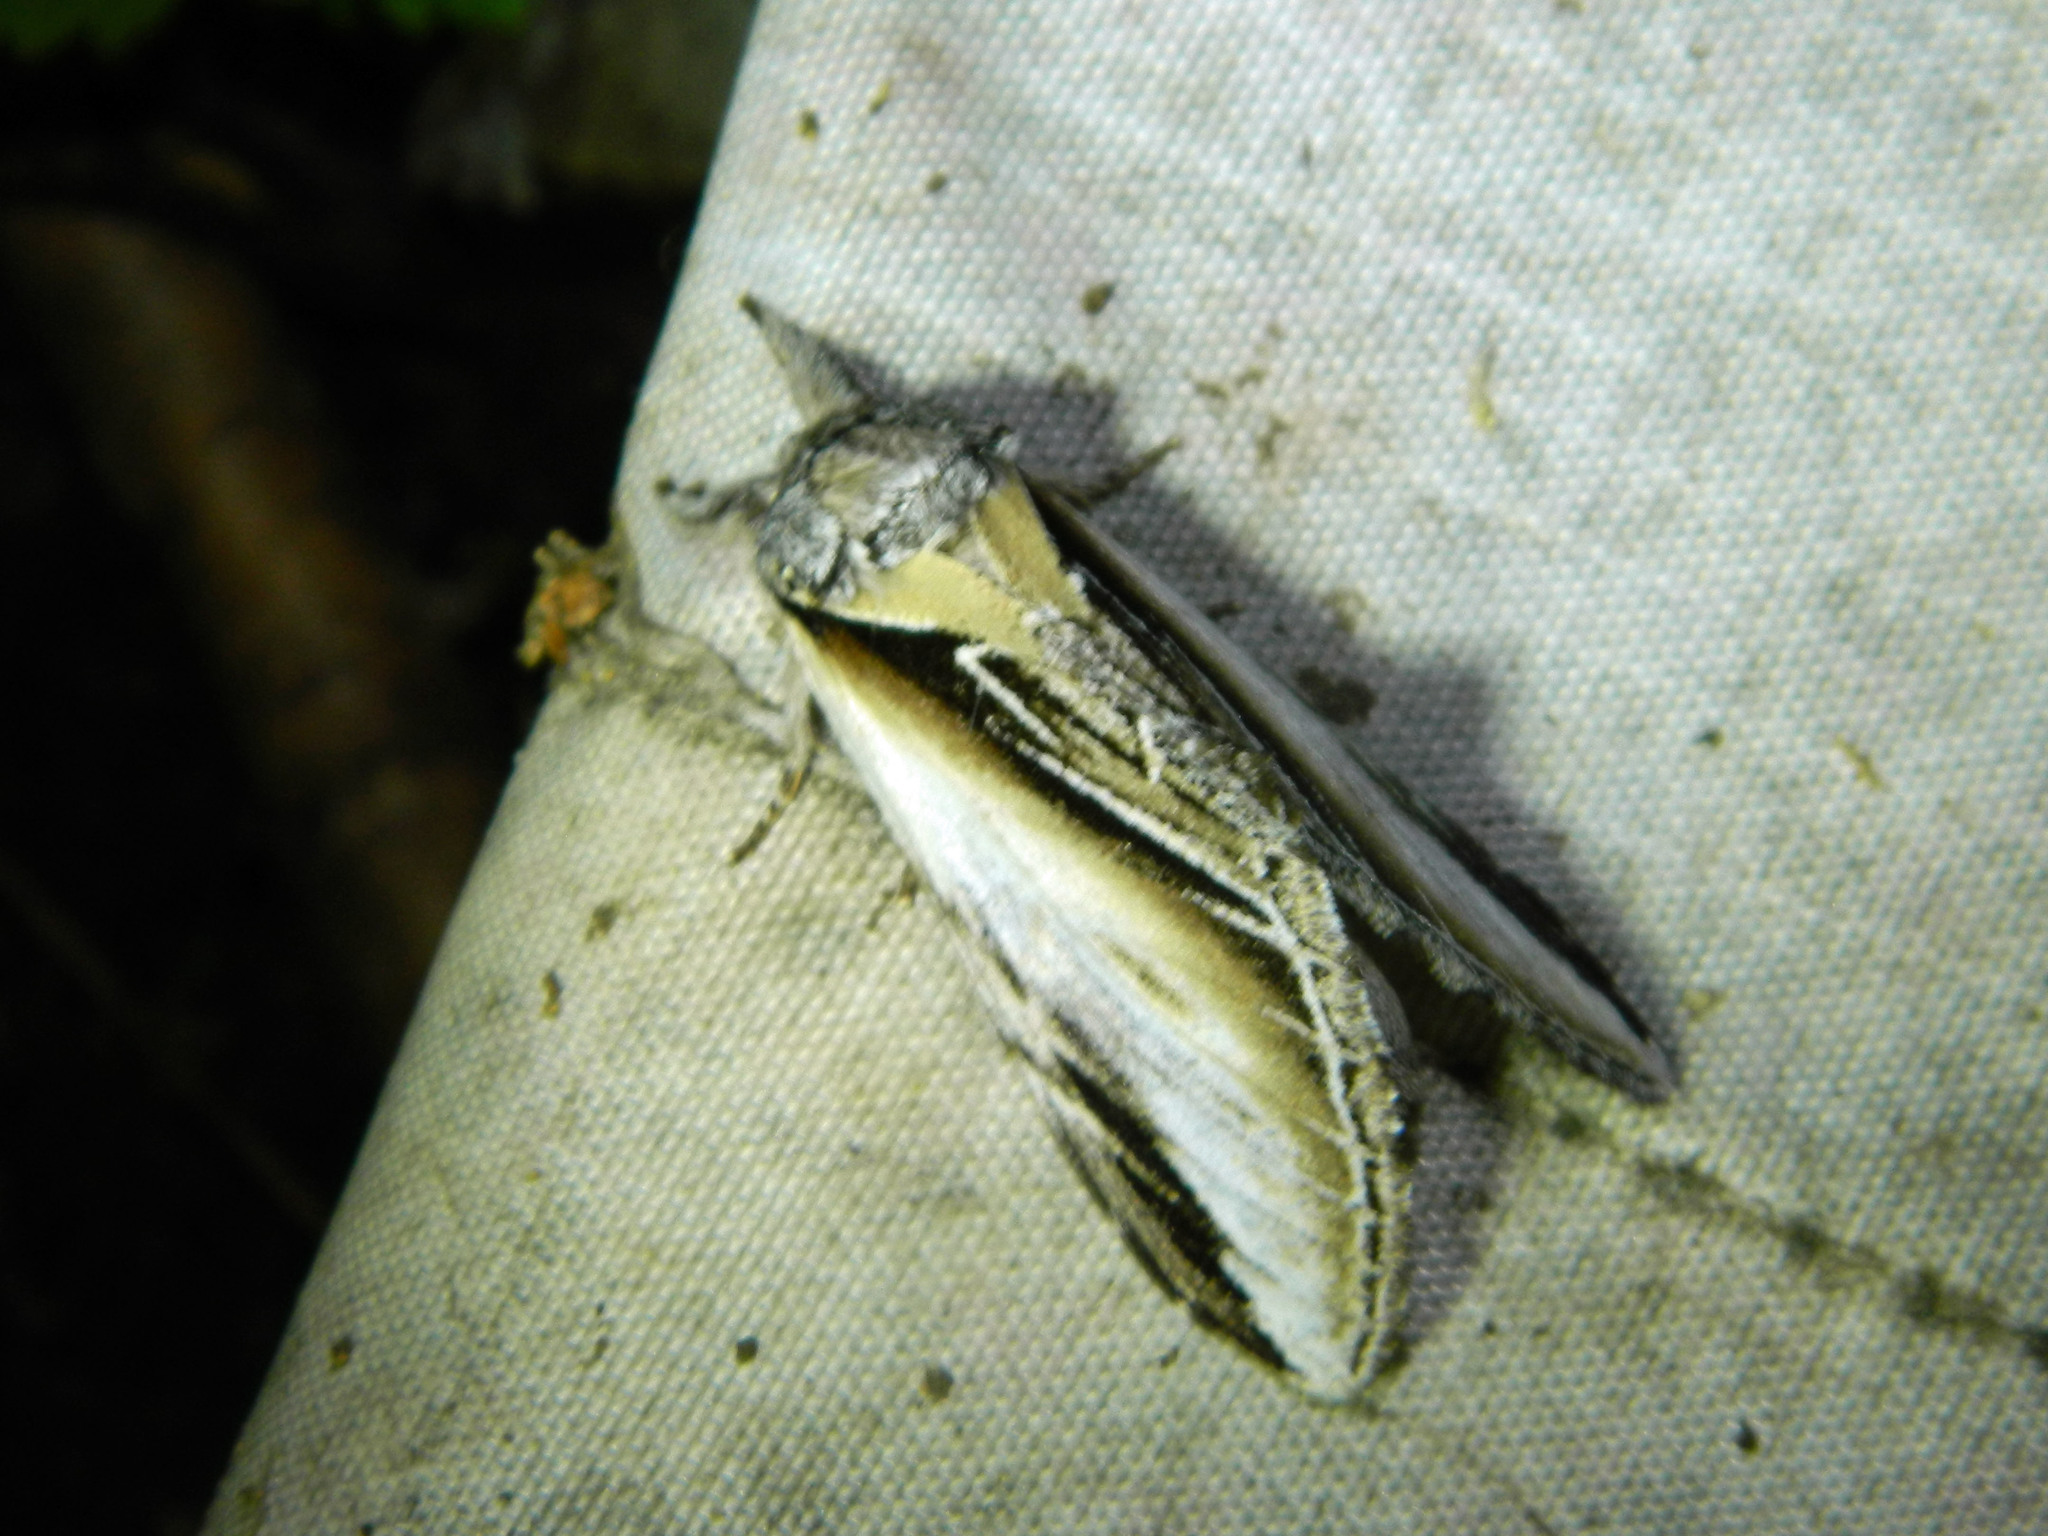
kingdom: Animalia
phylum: Arthropoda
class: Insecta
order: Lepidoptera
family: Notodontidae
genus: Pheosia
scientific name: Pheosia rimosa
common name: Black-rimmed prominent
